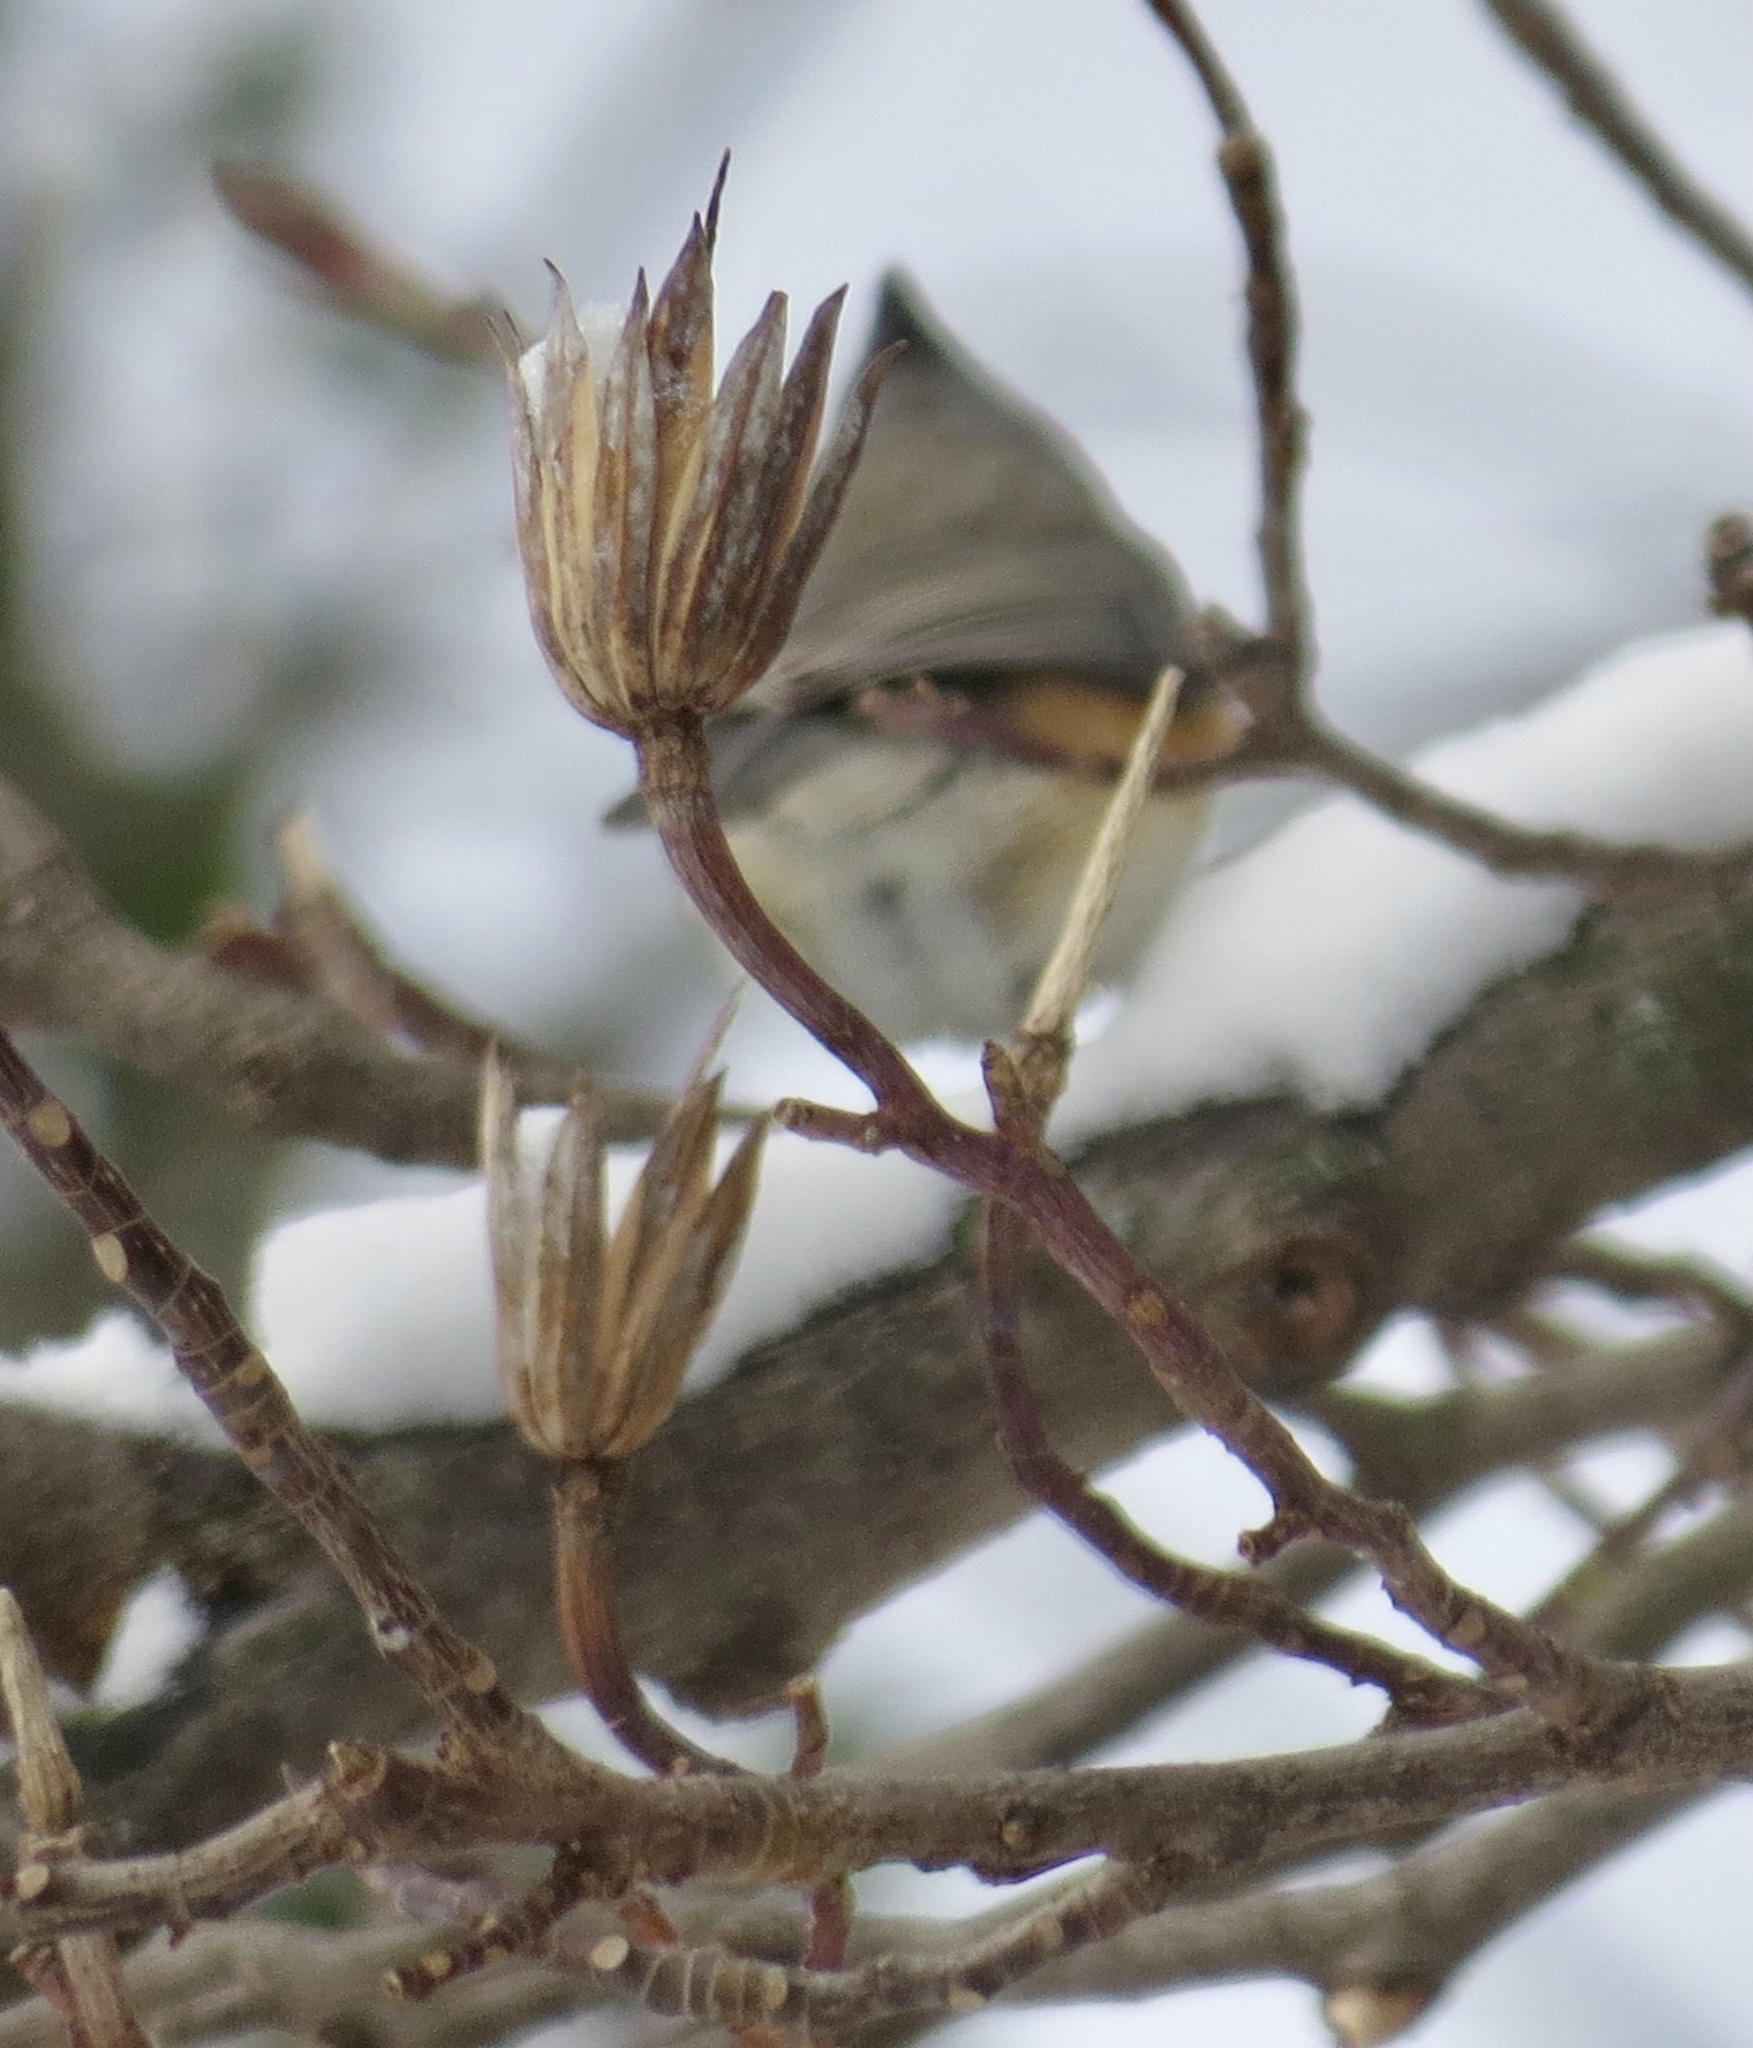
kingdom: Plantae
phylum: Tracheophyta
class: Magnoliopsida
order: Magnoliales
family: Magnoliaceae
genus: Liriodendron
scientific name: Liriodendron tulipifera
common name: Tulip tree
